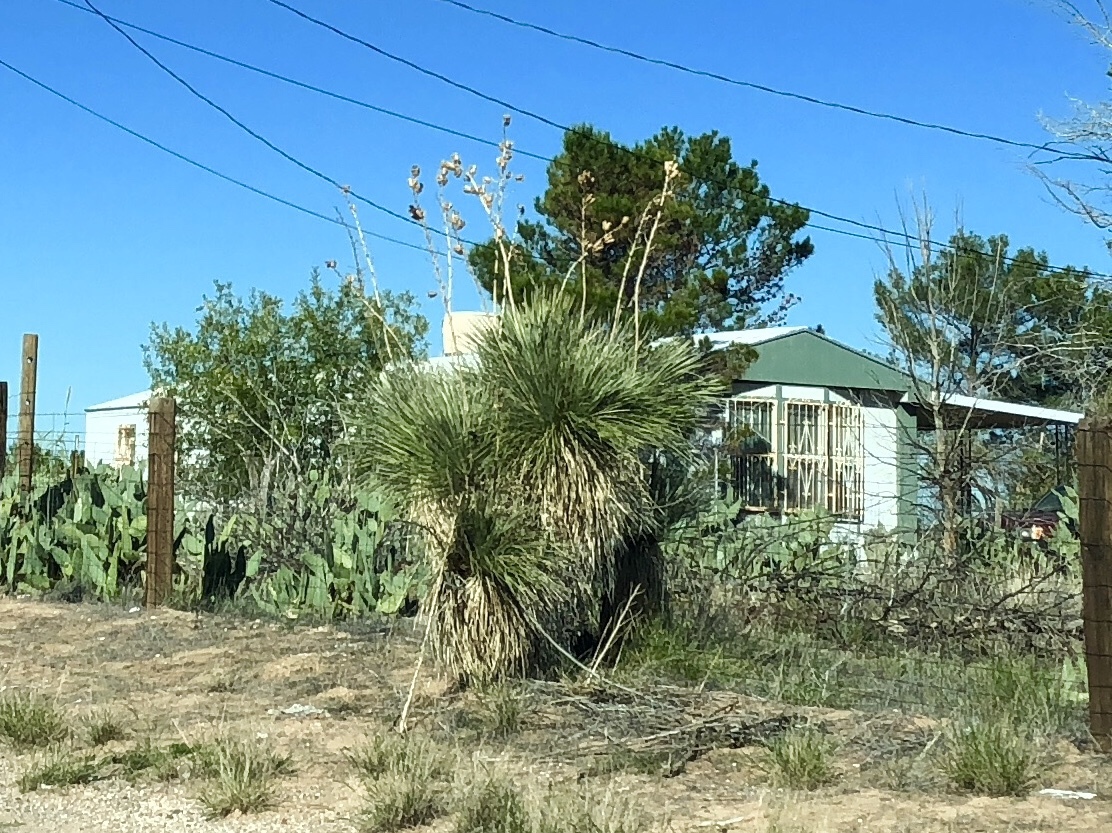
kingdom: Plantae
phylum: Tracheophyta
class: Liliopsida
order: Asparagales
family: Asparagaceae
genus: Yucca
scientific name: Yucca elata
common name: Palmella
